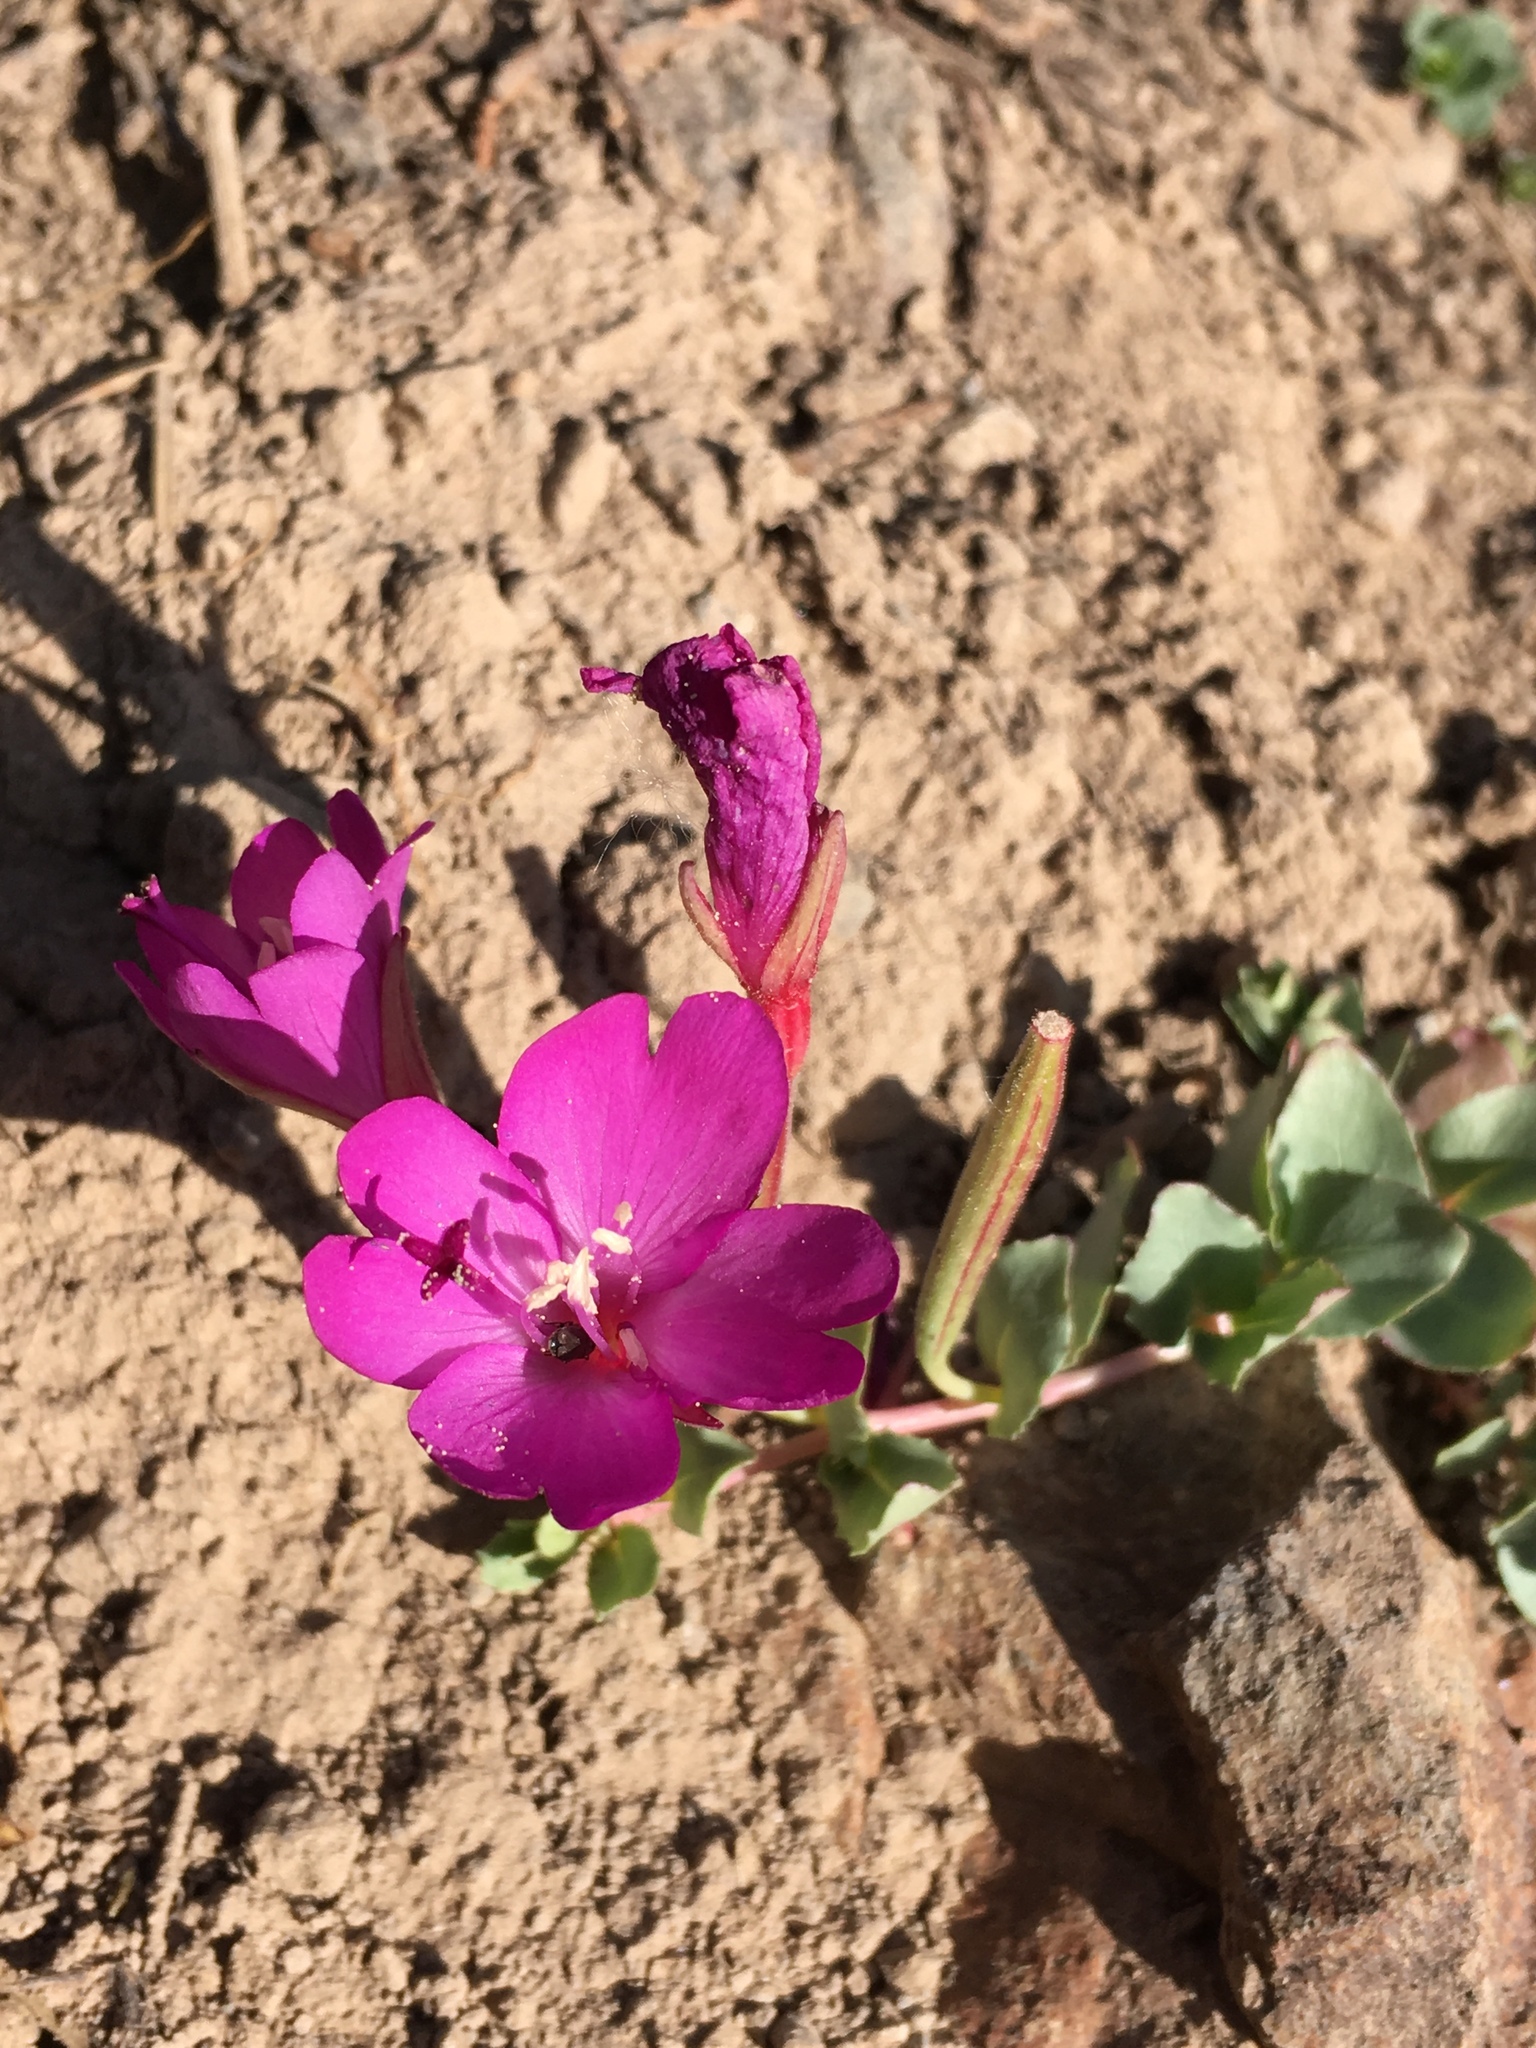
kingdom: Plantae
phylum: Tracheophyta
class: Magnoliopsida
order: Myrtales
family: Onagraceae
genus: Epilobium
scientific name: Epilobium obcordatum
